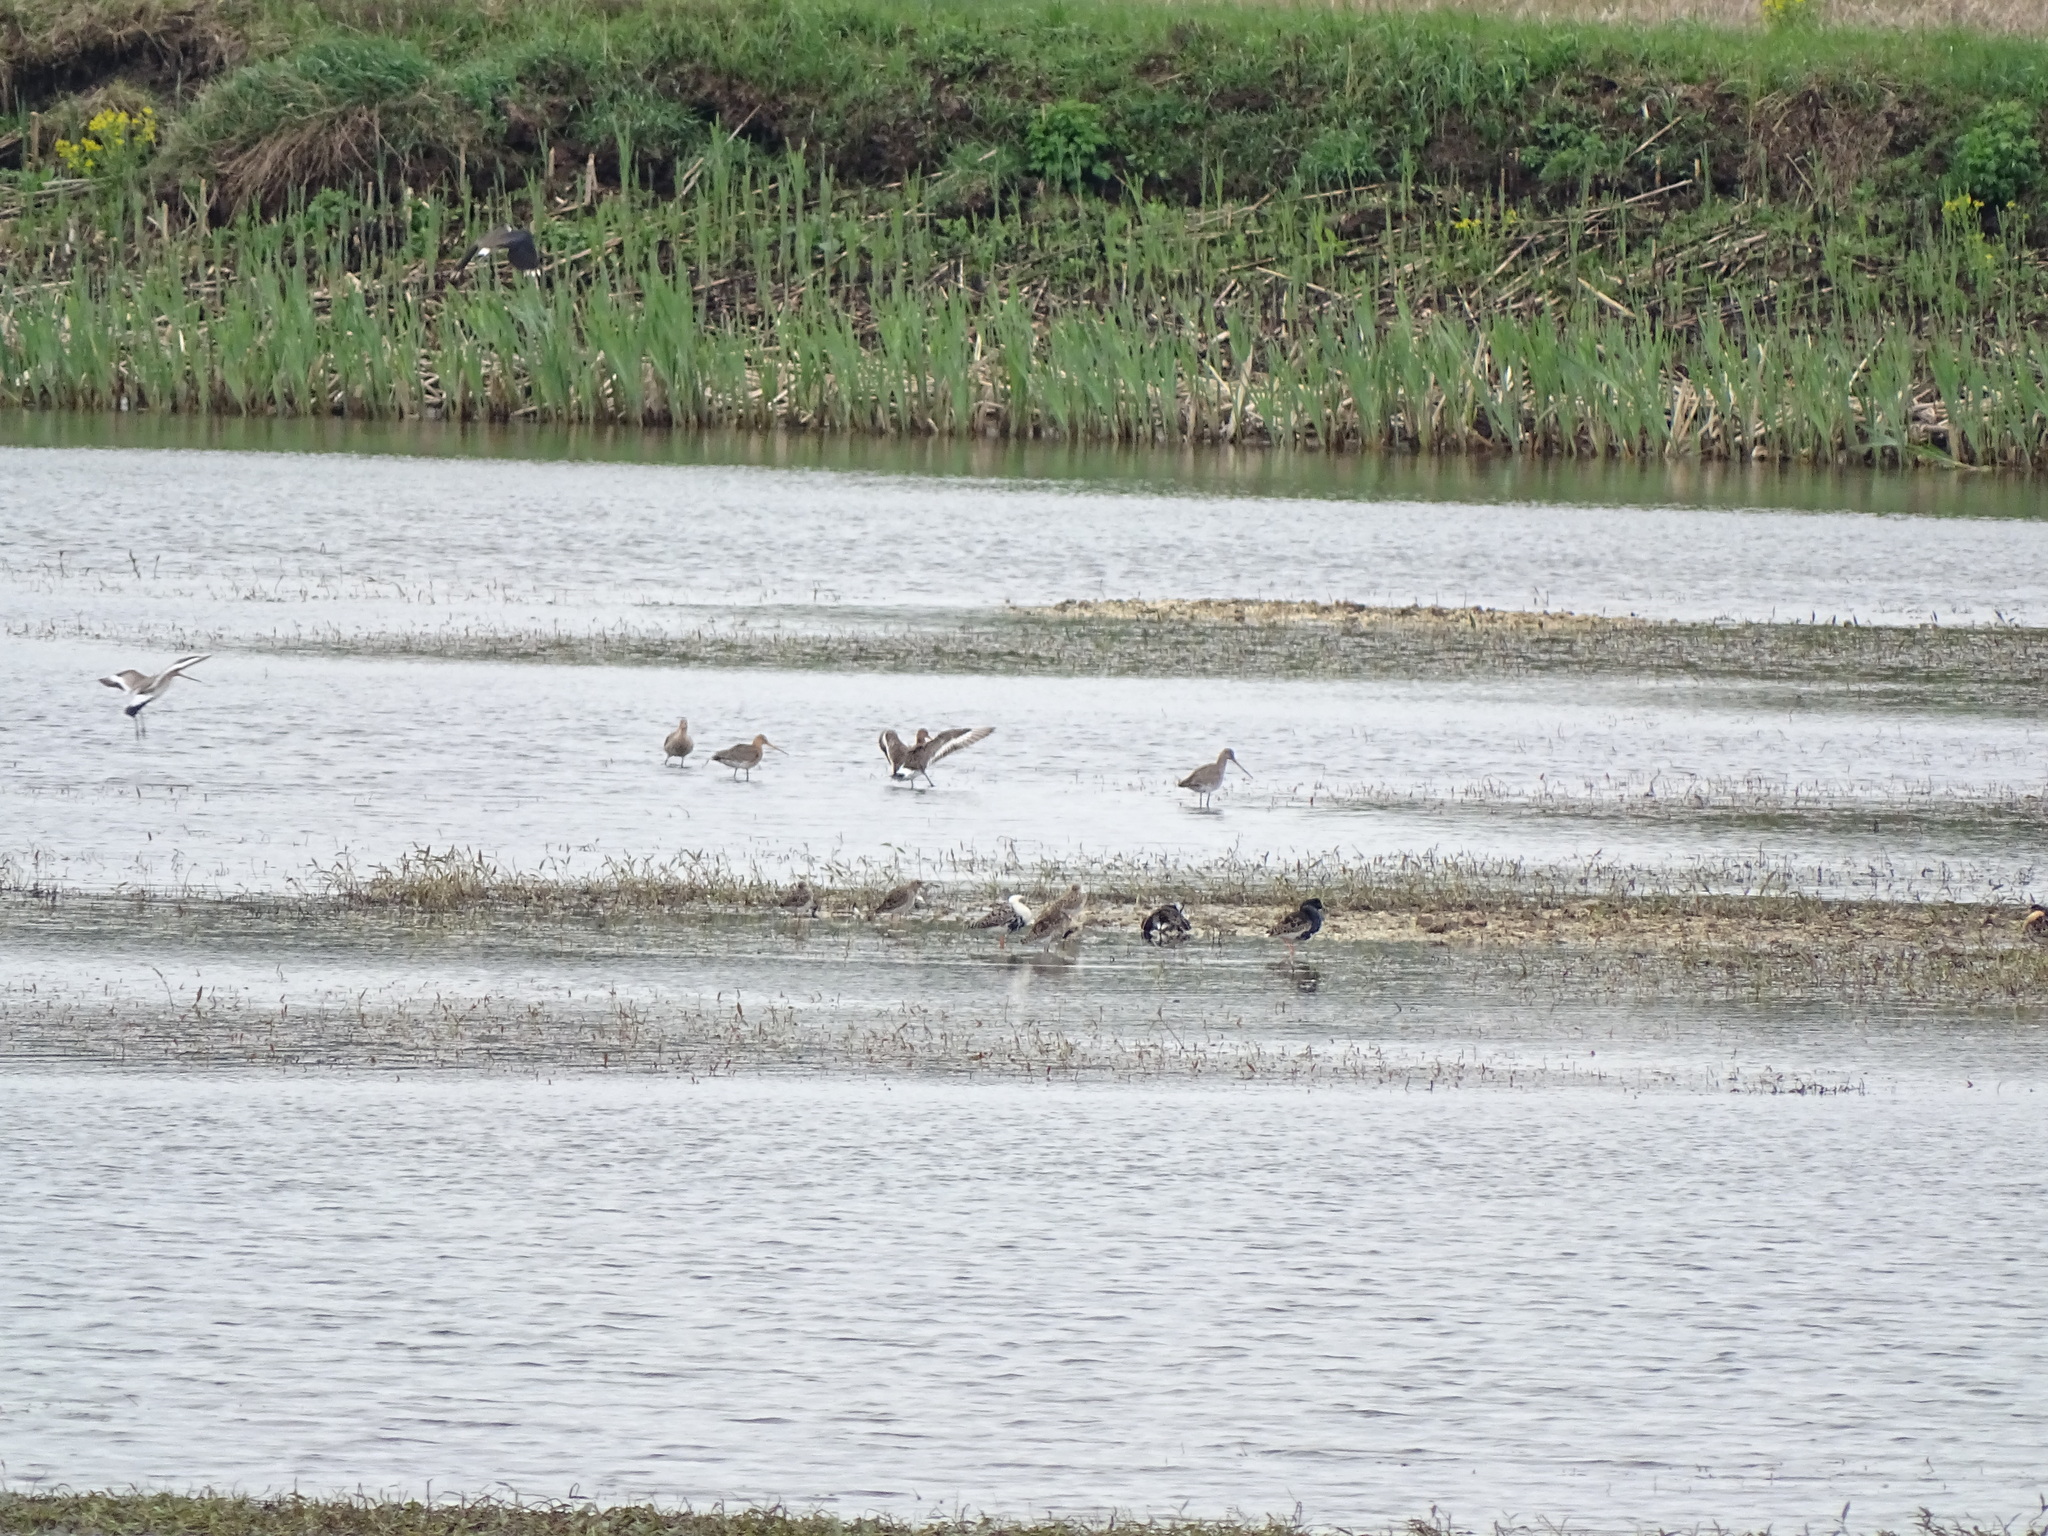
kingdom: Animalia
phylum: Chordata
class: Aves
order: Charadriiformes
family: Scolopacidae
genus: Limosa
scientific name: Limosa limosa
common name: Black-tailed godwit
